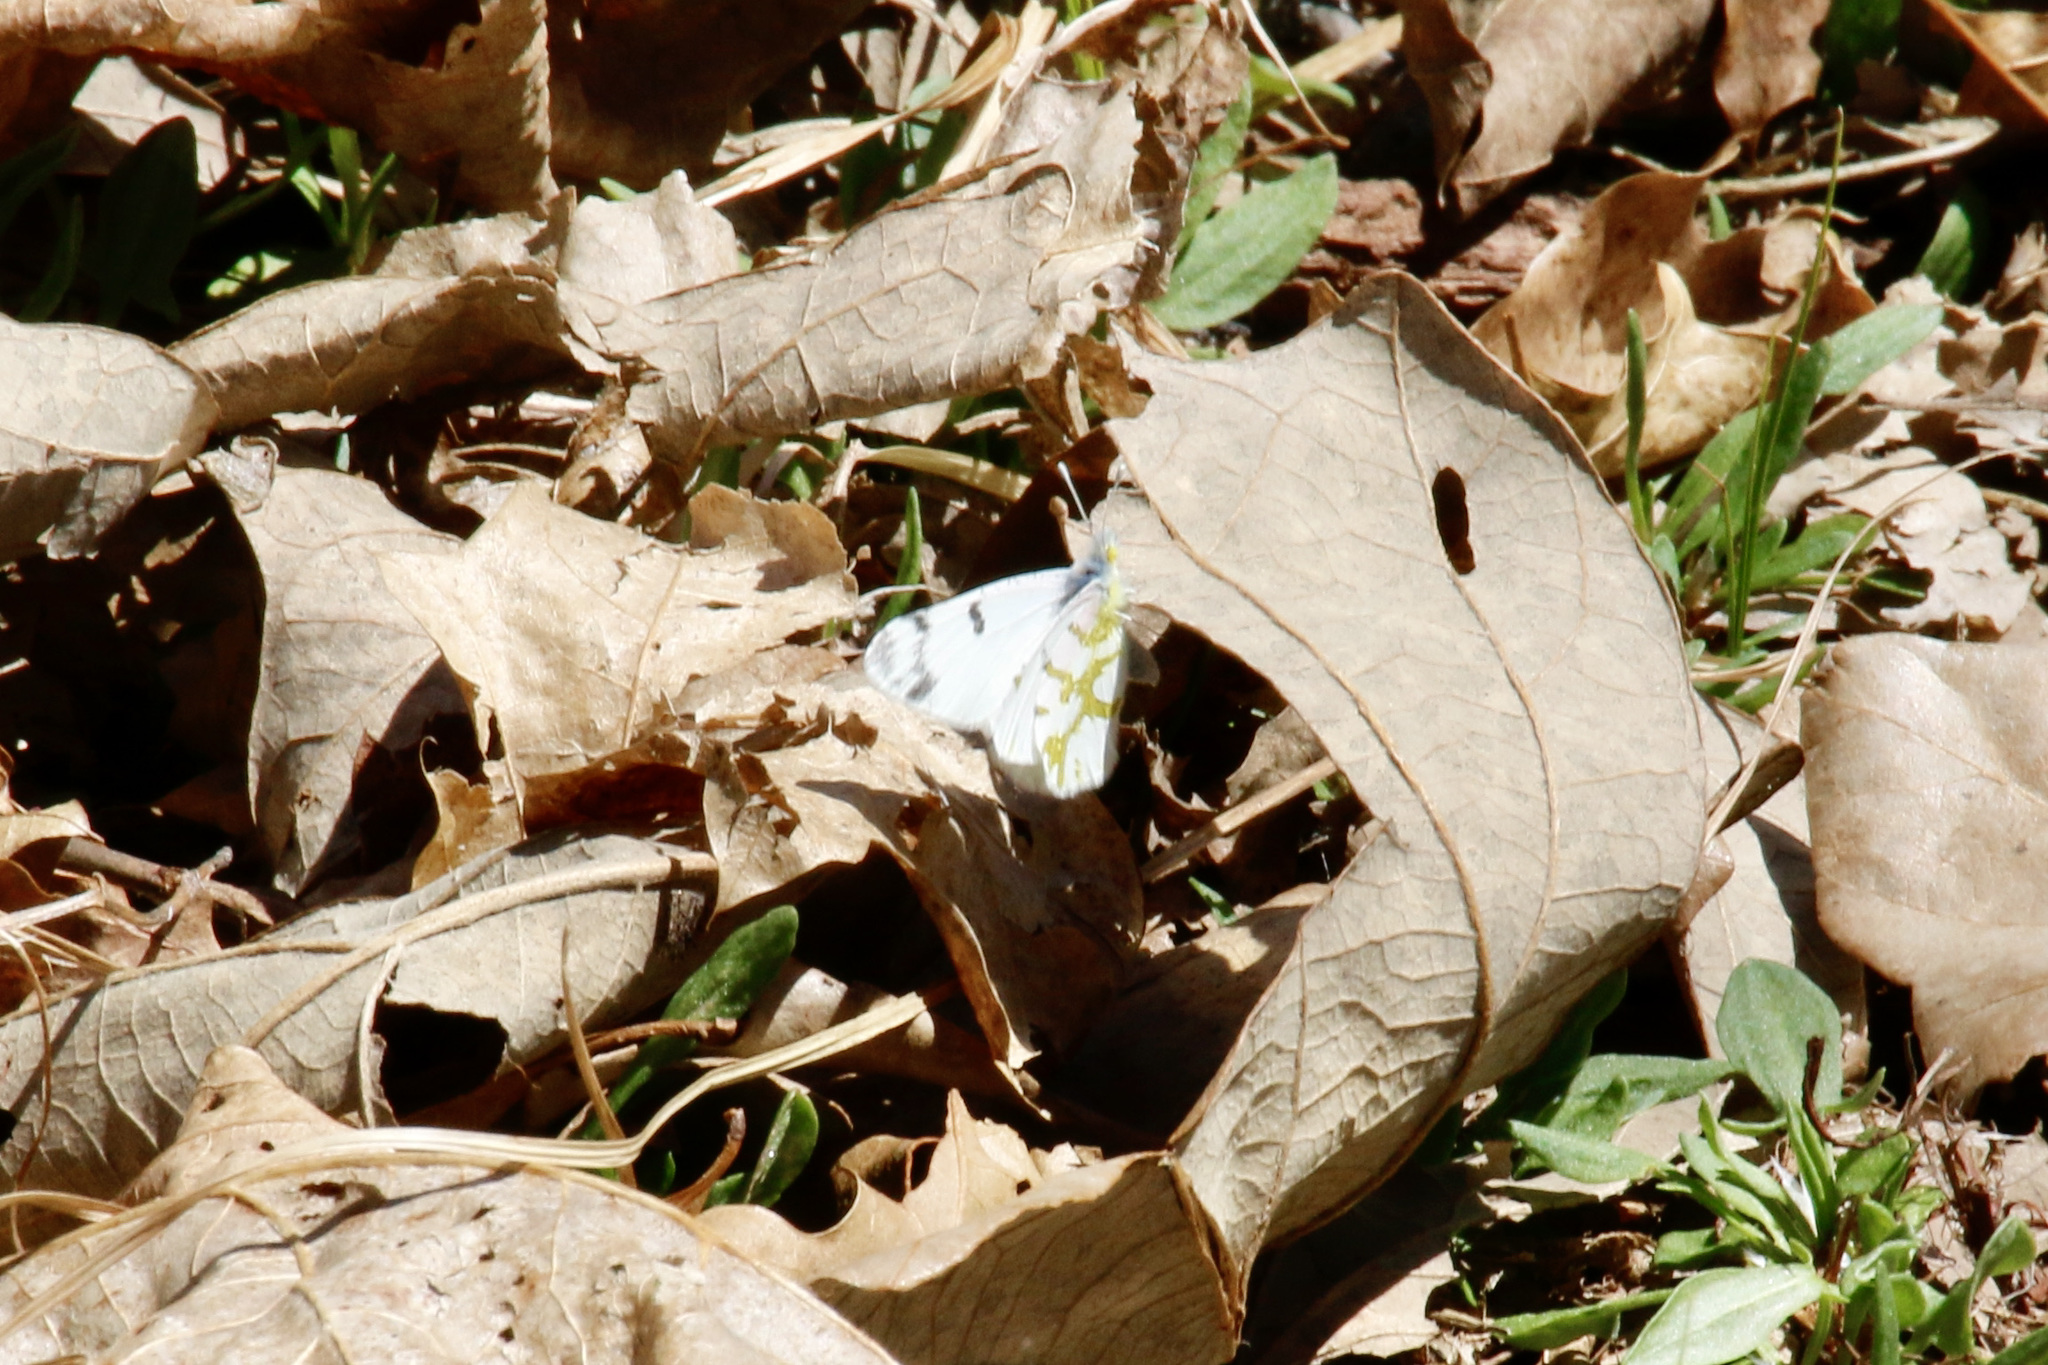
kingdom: Animalia
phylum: Arthropoda
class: Insecta
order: Lepidoptera
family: Pieridae
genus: Euchloe
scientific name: Euchloe olympia
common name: Olympia
